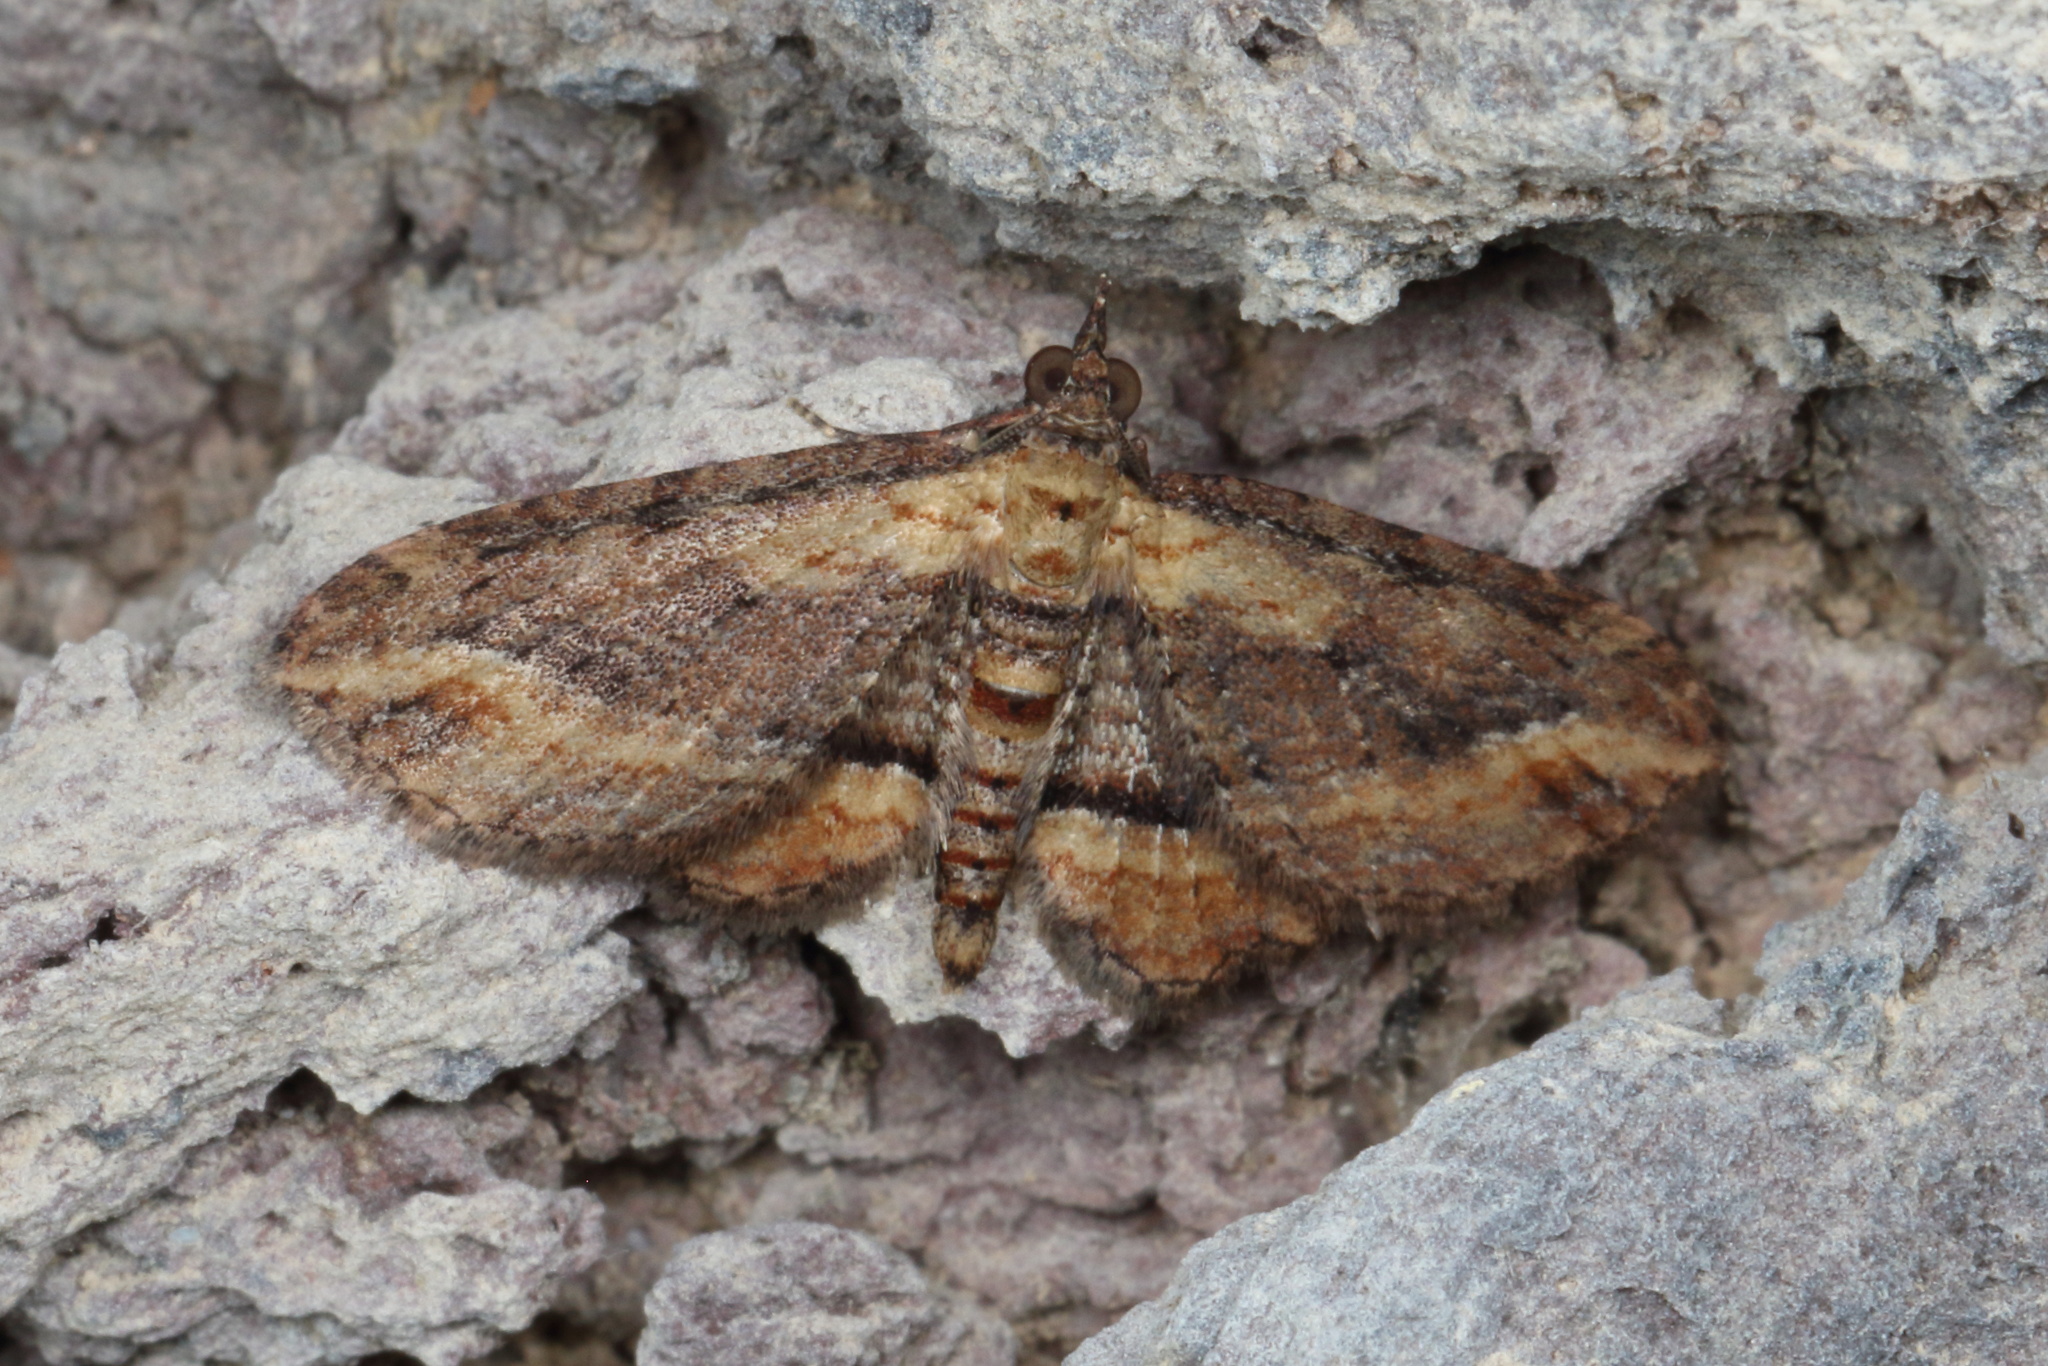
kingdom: Animalia
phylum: Arthropoda
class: Insecta
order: Lepidoptera
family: Geometridae
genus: Chloroclystis
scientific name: Chloroclystis filata
